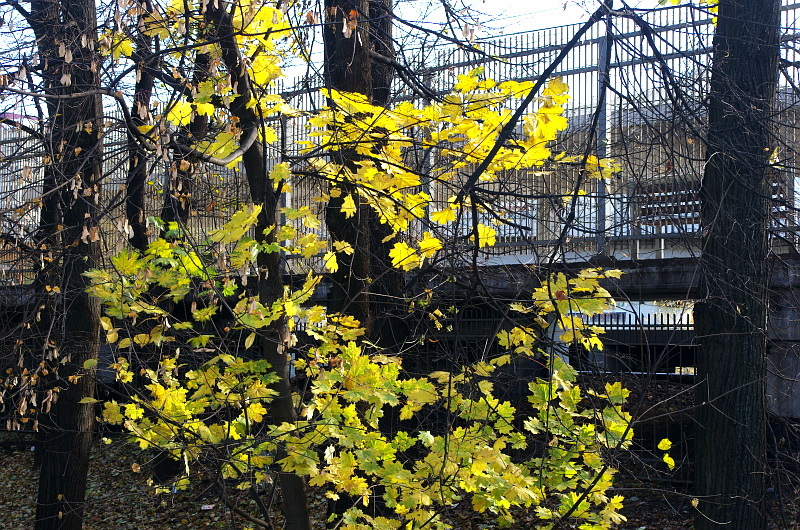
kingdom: Plantae
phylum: Tracheophyta
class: Magnoliopsida
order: Sapindales
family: Sapindaceae
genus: Acer
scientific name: Acer platanoides
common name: Norway maple
